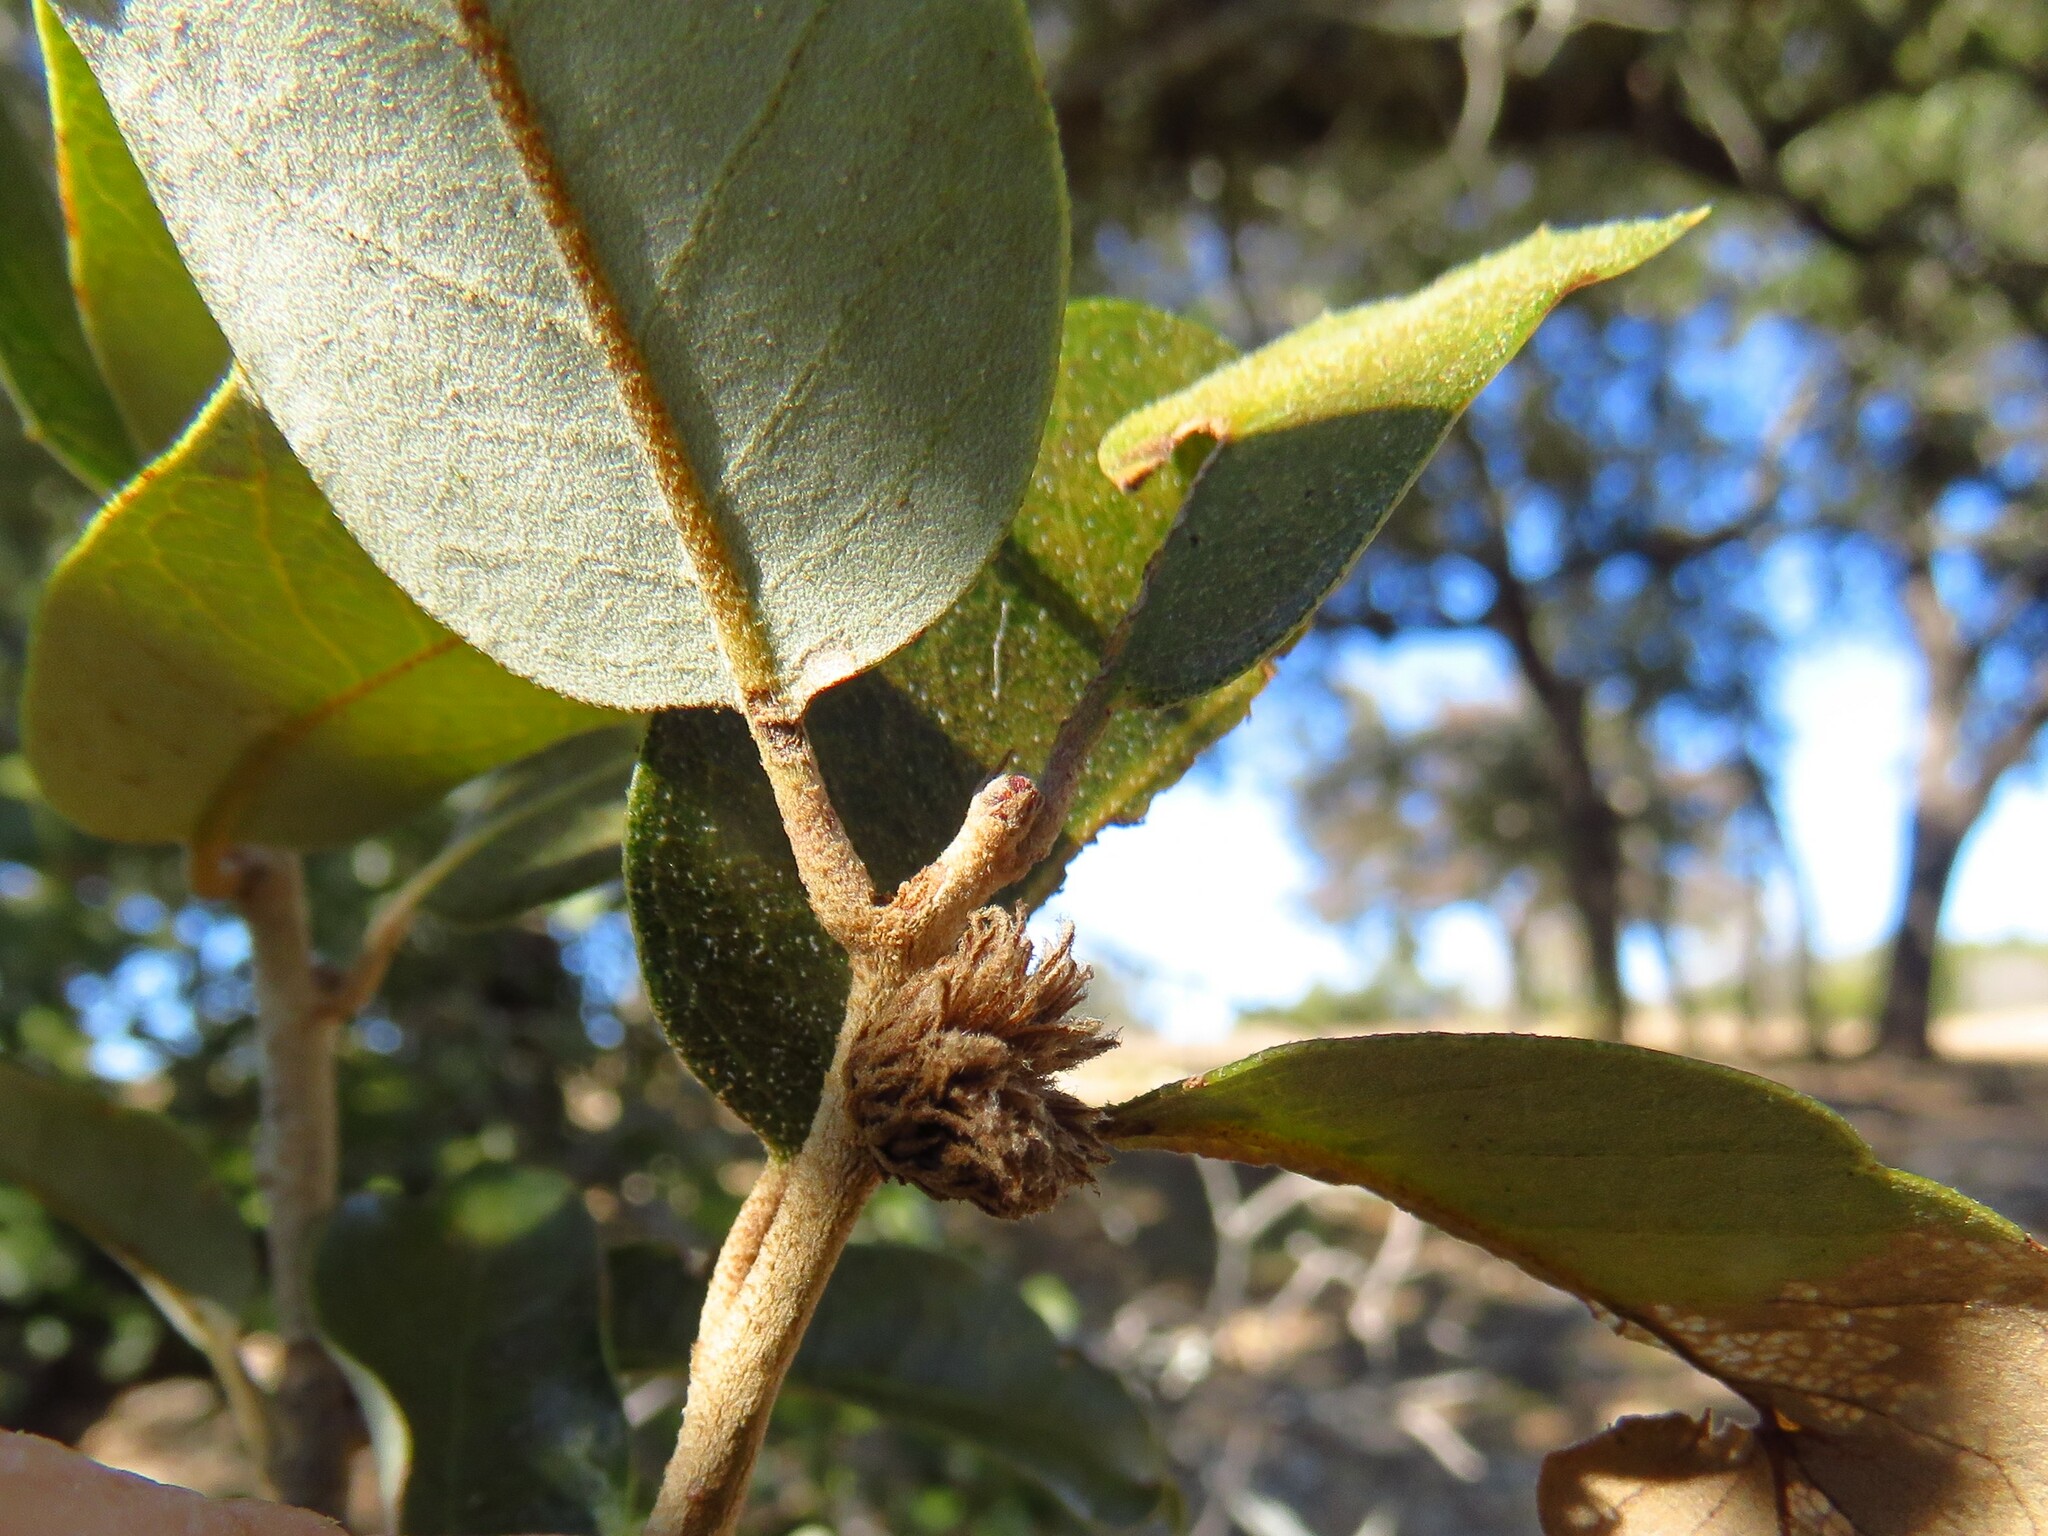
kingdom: Animalia
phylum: Arthropoda
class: Insecta
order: Hymenoptera
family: Cynipidae
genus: Andricus
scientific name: Andricus quercusfoliatus
